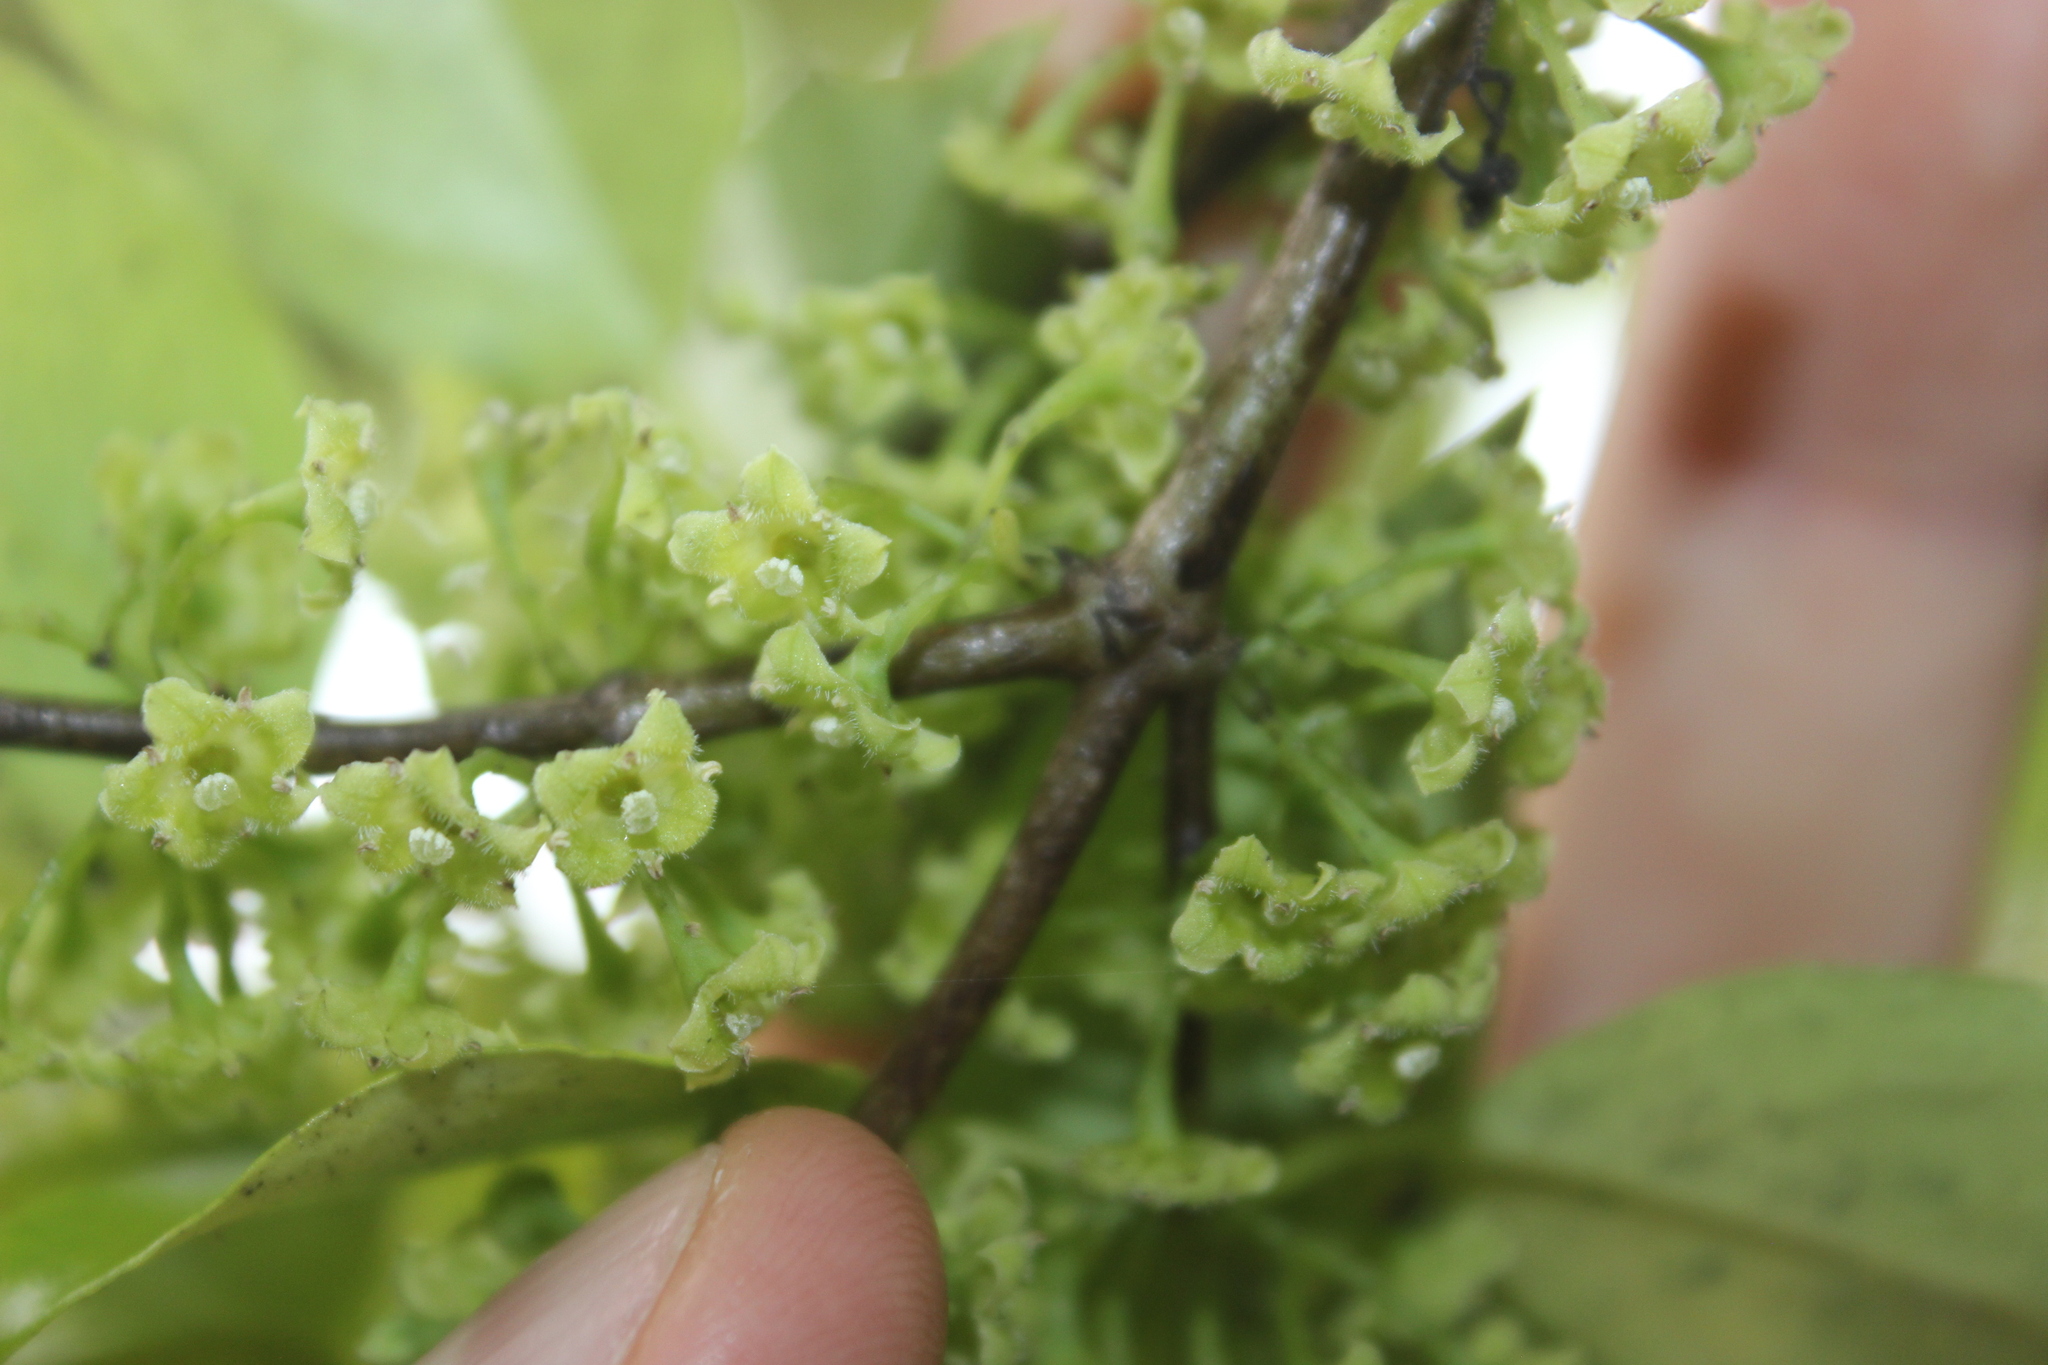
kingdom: Plantae
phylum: Tracheophyta
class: Magnoliopsida
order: Gentianales
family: Loganiaceae
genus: Geniostoma
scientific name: Geniostoma ligustrifolium
